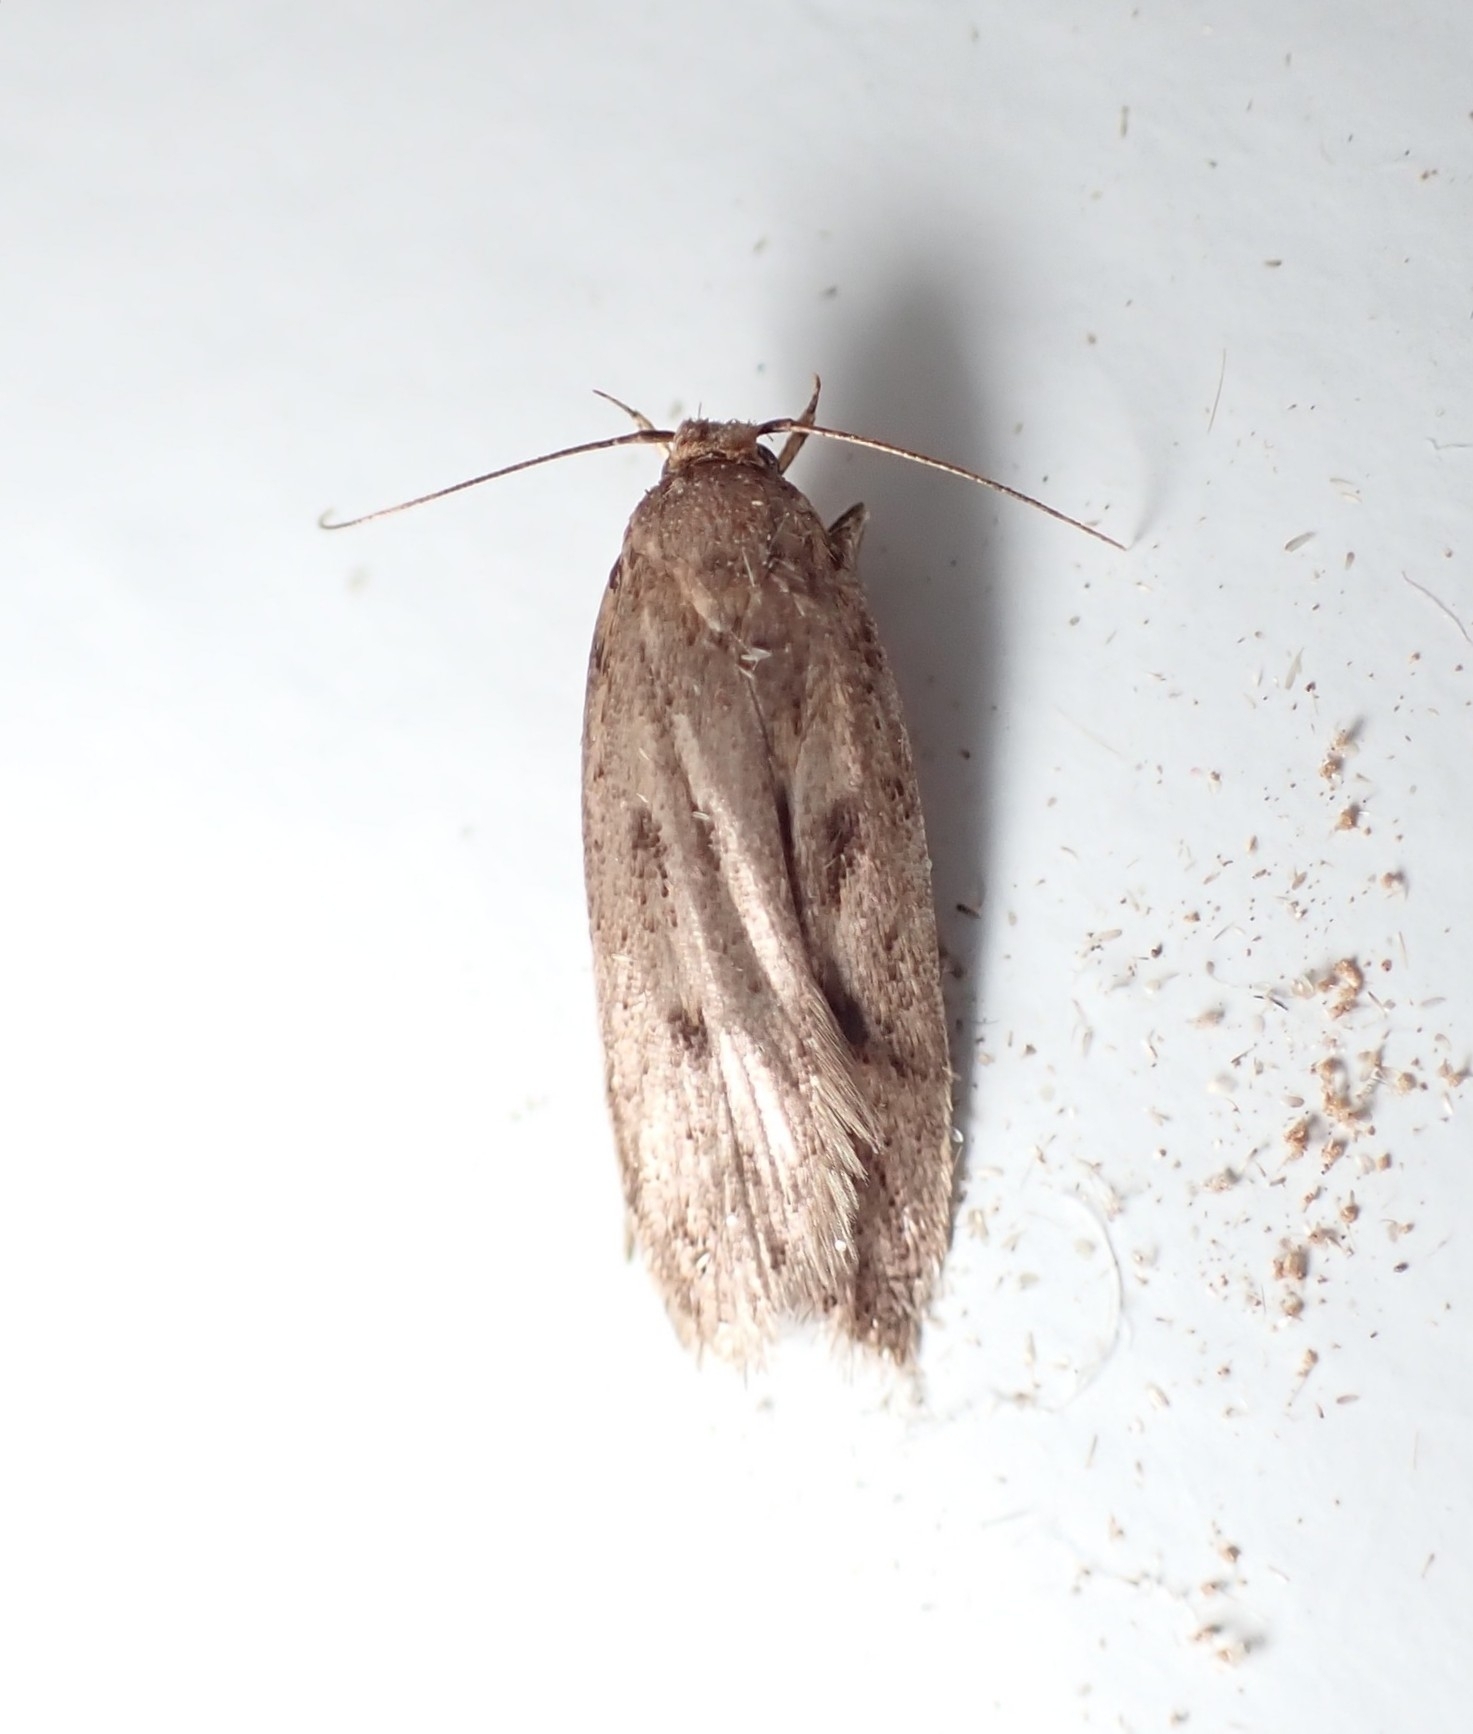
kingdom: Animalia
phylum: Arthropoda
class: Insecta
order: Lepidoptera
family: Oecophoridae
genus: Tachystola
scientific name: Tachystola acroxantha
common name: Ruddy streak
